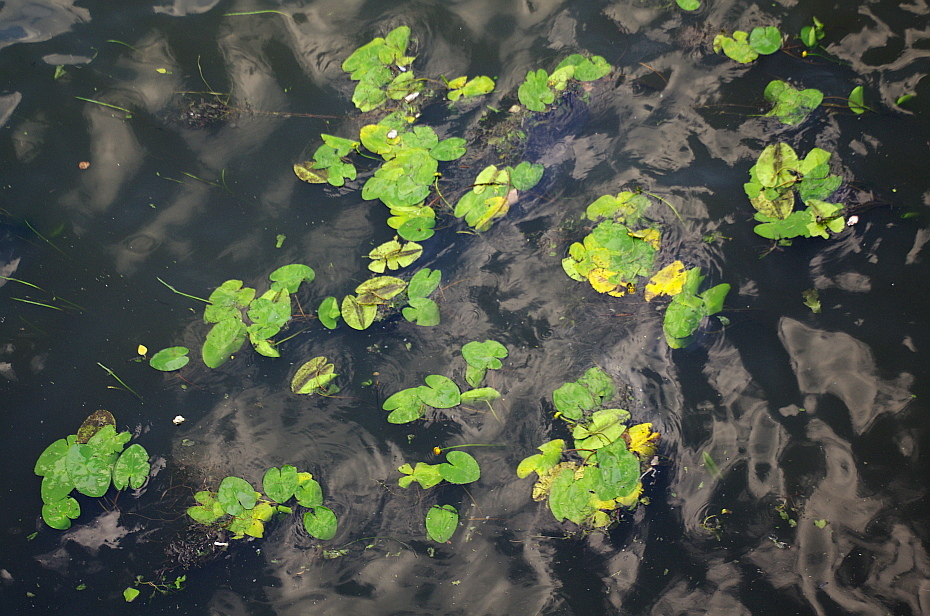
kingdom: Plantae
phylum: Tracheophyta
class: Magnoliopsida
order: Nymphaeales
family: Nymphaeaceae
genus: Nuphar
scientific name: Nuphar lutea
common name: Yellow water-lily
